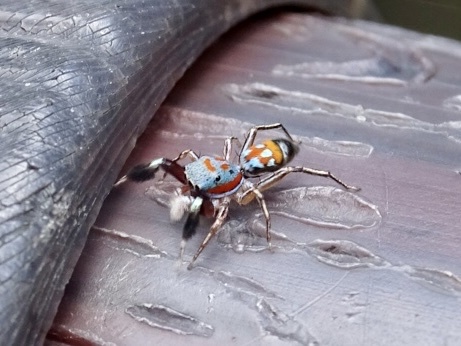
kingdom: Animalia
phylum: Arthropoda
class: Arachnida
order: Araneae
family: Salticidae
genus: Siler
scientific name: Siler collingwoodi
